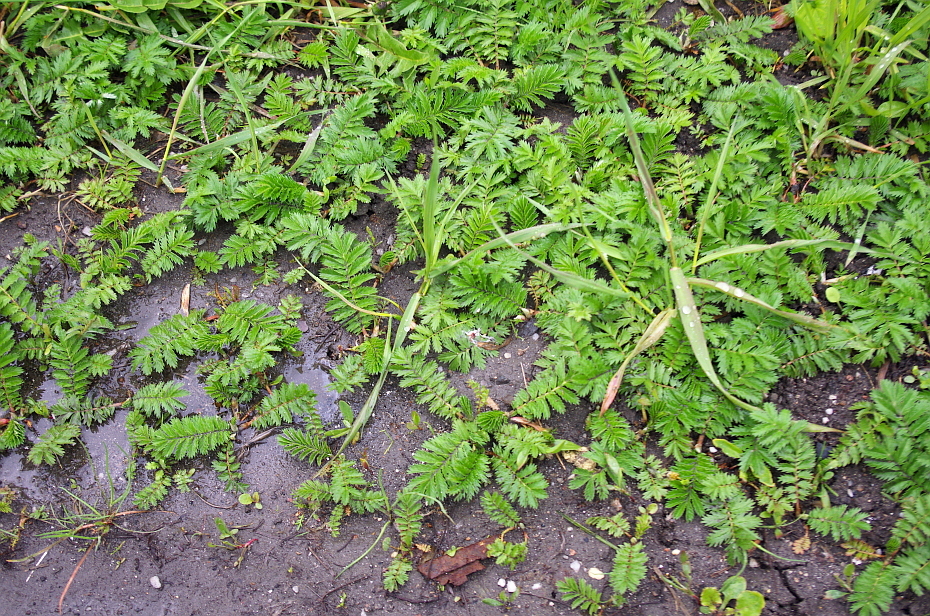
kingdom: Plantae
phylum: Tracheophyta
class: Magnoliopsida
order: Rosales
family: Rosaceae
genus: Argentina
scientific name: Argentina anserina
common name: Common silverweed
